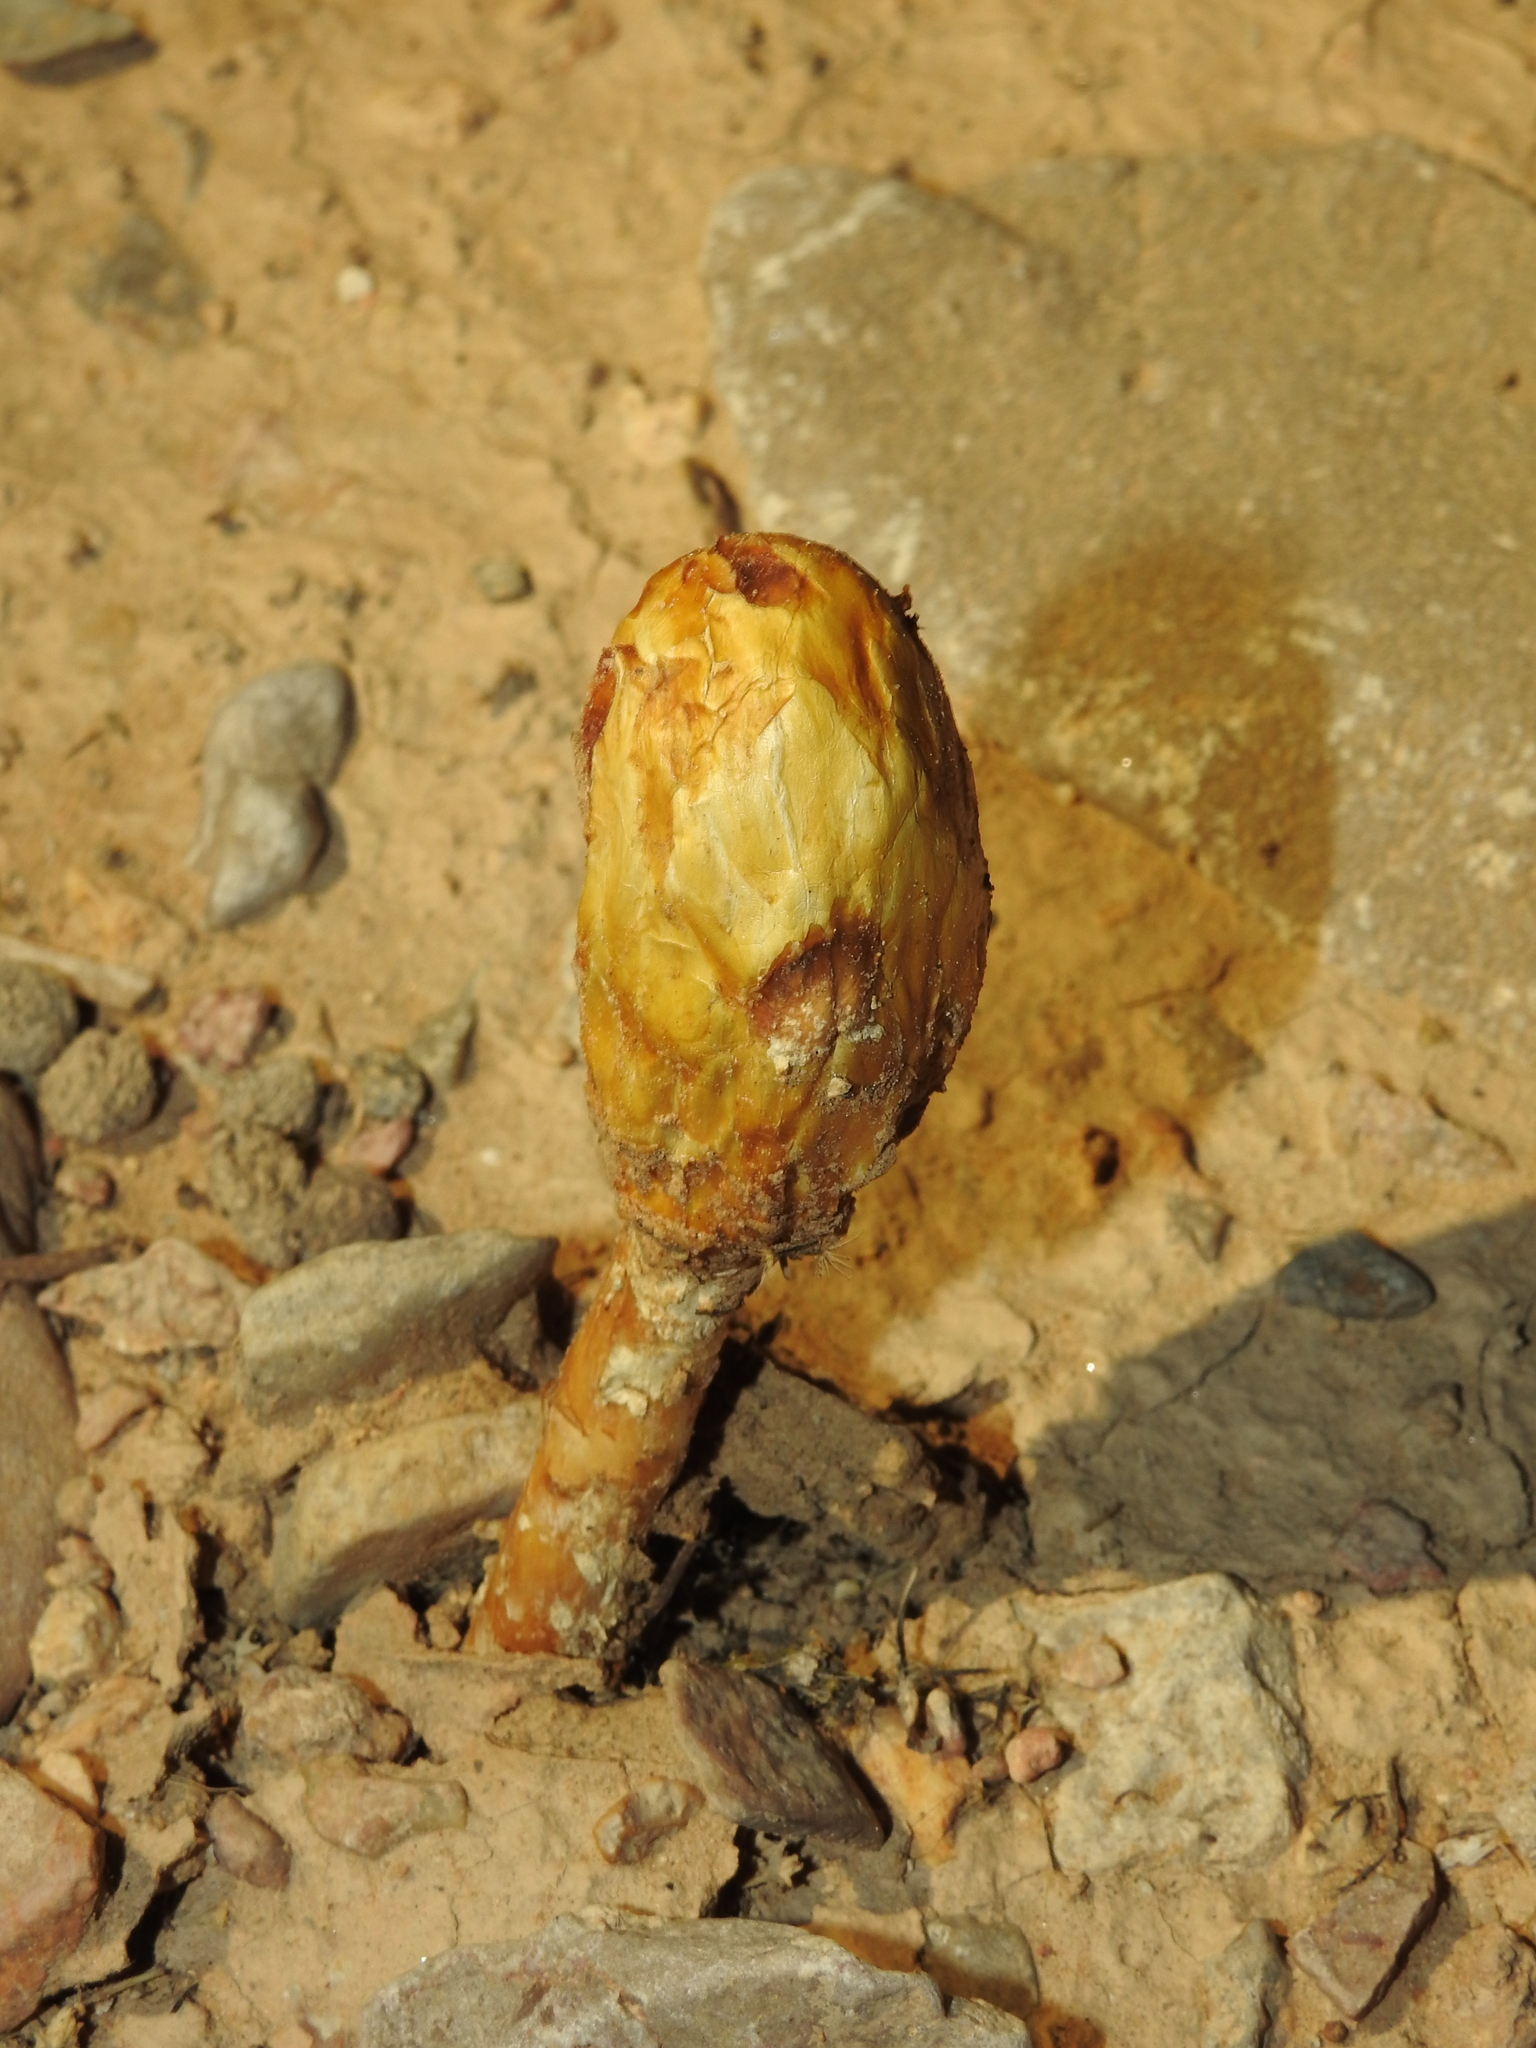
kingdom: Fungi
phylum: Basidiomycota
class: Agaricomycetes
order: Agaricales
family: Agaricaceae
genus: Podaxis
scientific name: Podaxis pistillaris
